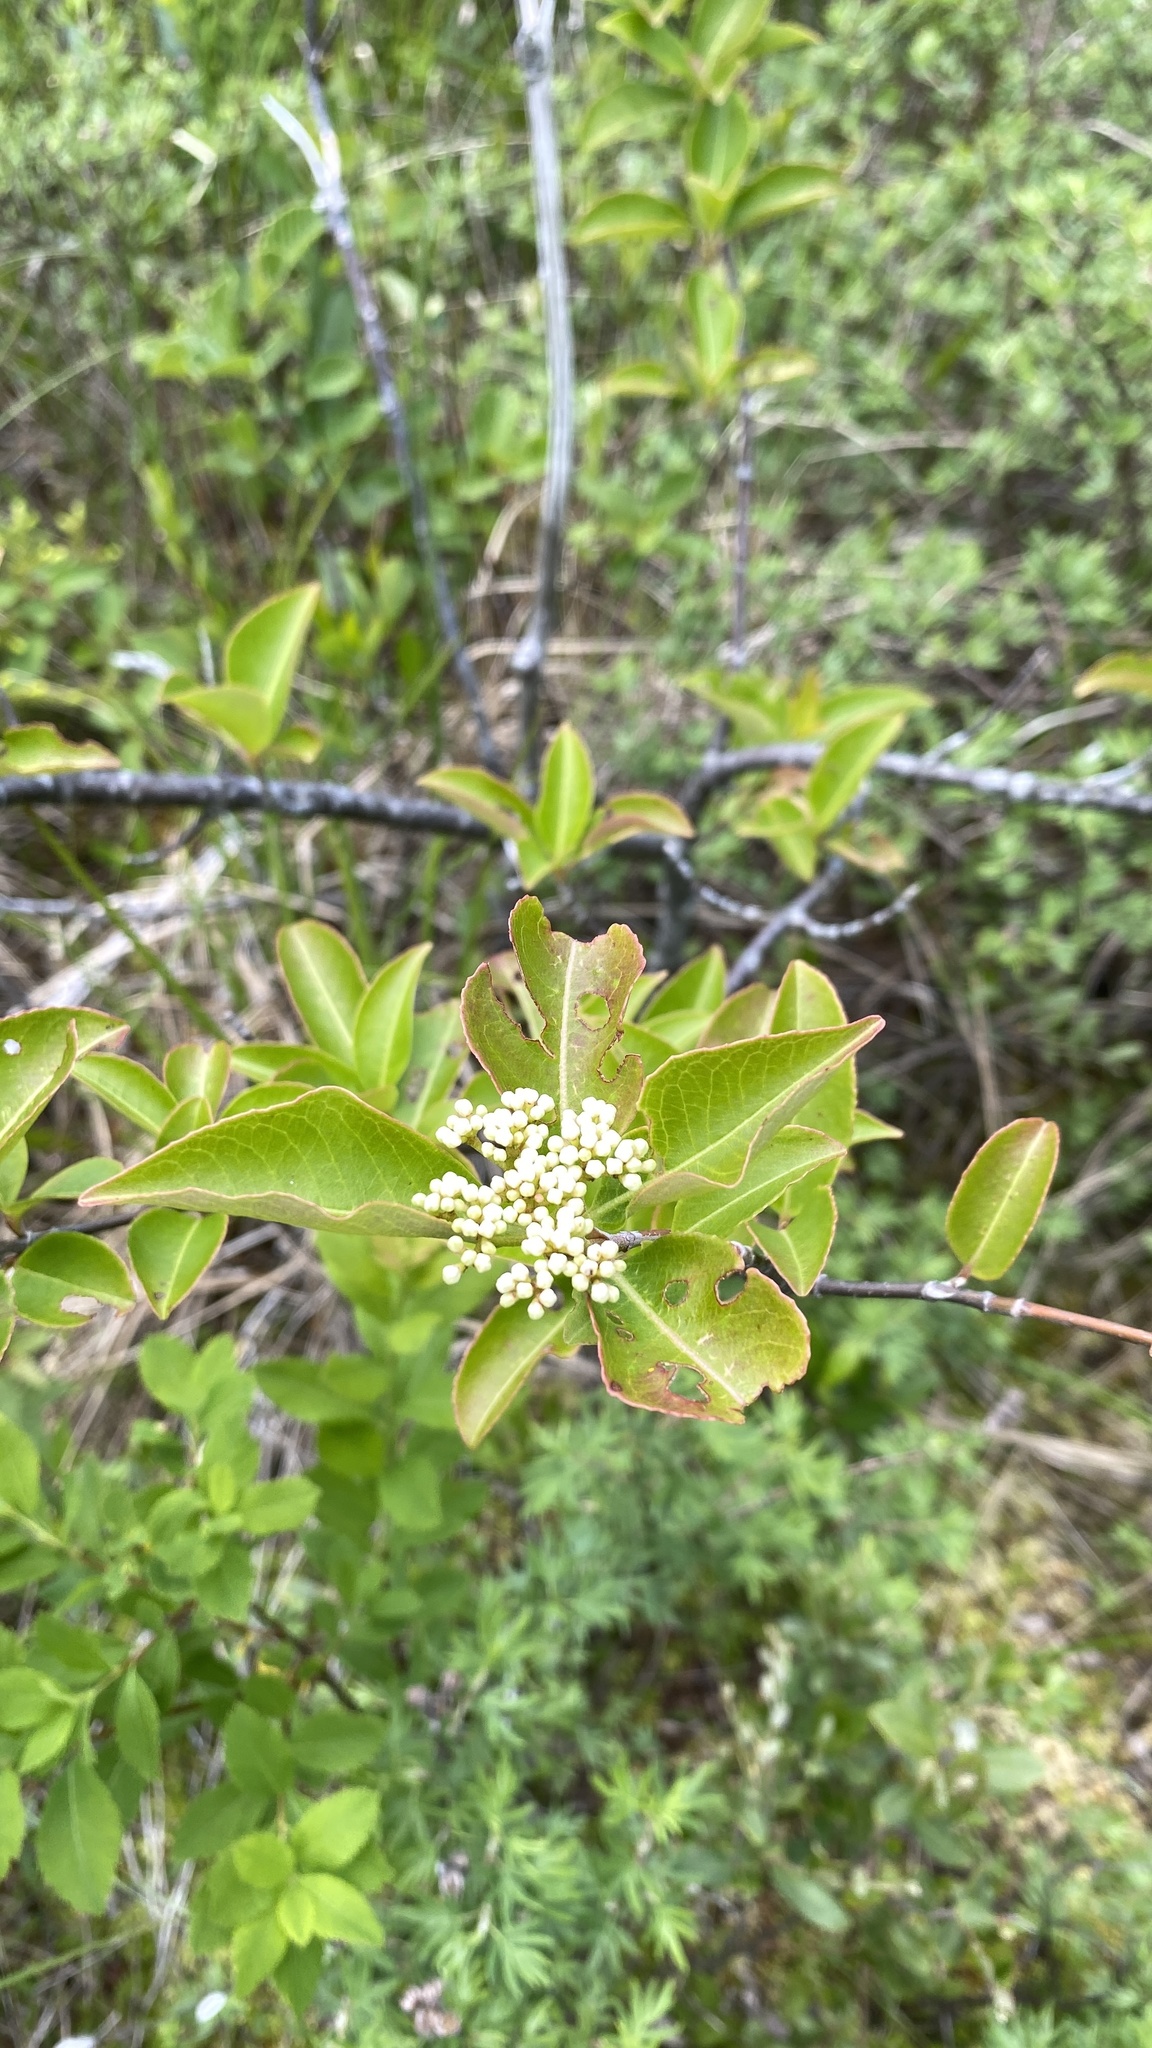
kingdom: Plantae
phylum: Tracheophyta
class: Magnoliopsida
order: Dipsacales
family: Viburnaceae
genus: Viburnum
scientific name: Viburnum cassinoides
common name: Swamp haw
